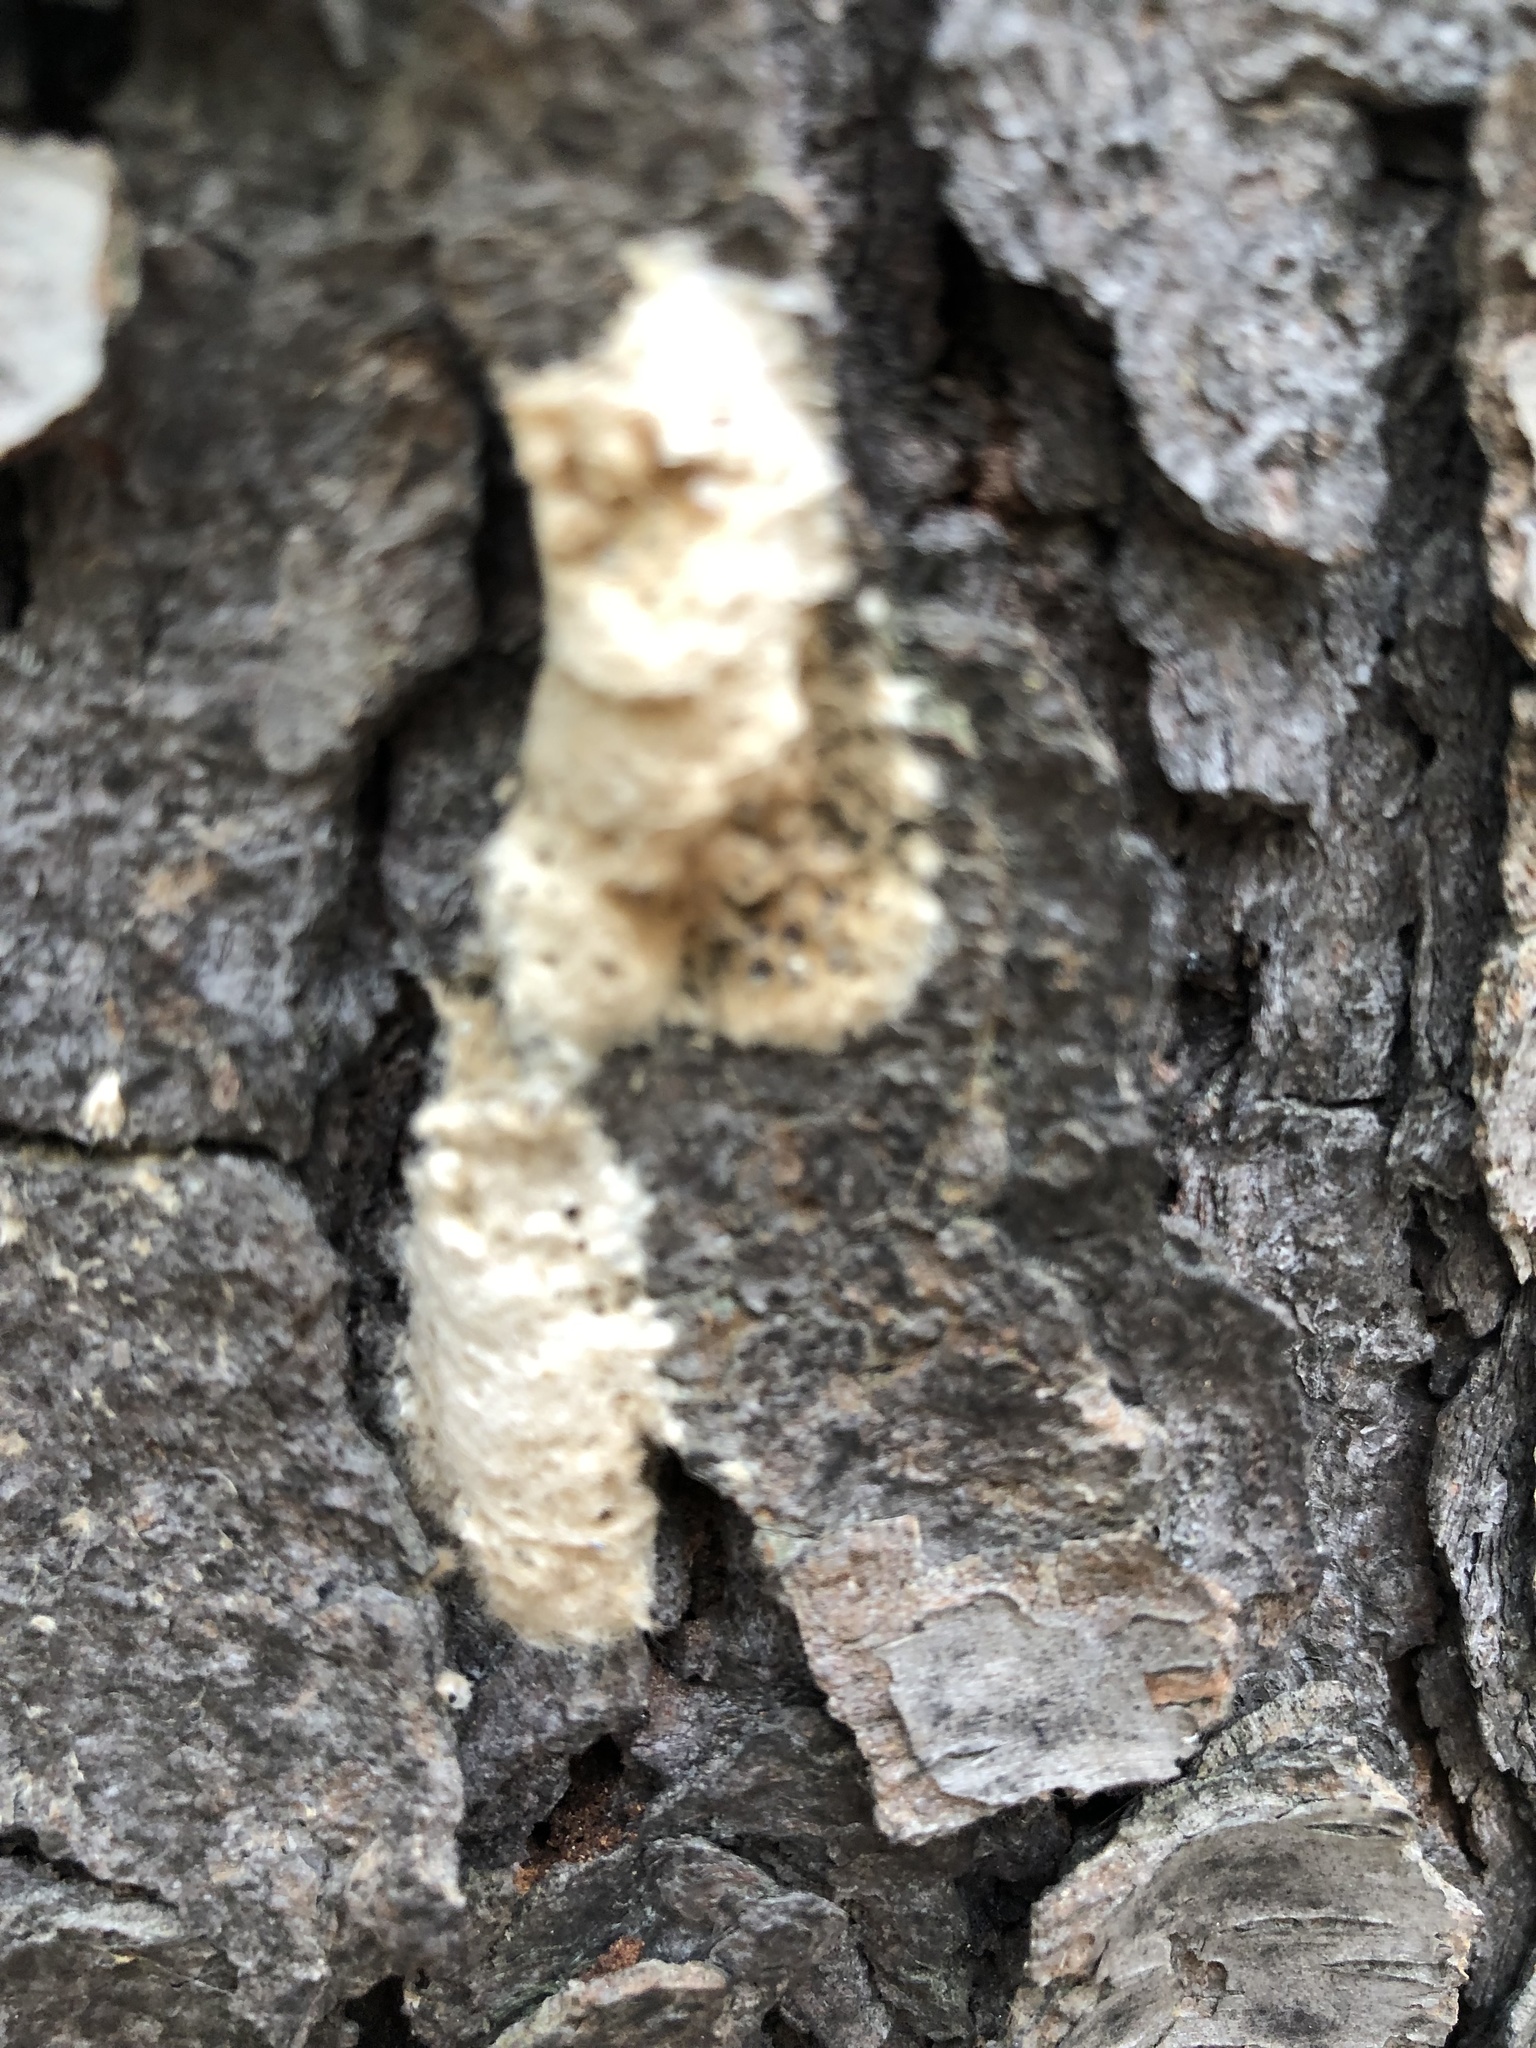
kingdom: Animalia
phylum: Arthropoda
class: Insecta
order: Lepidoptera
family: Erebidae
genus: Lymantria
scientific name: Lymantria dispar
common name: Gypsy moth
